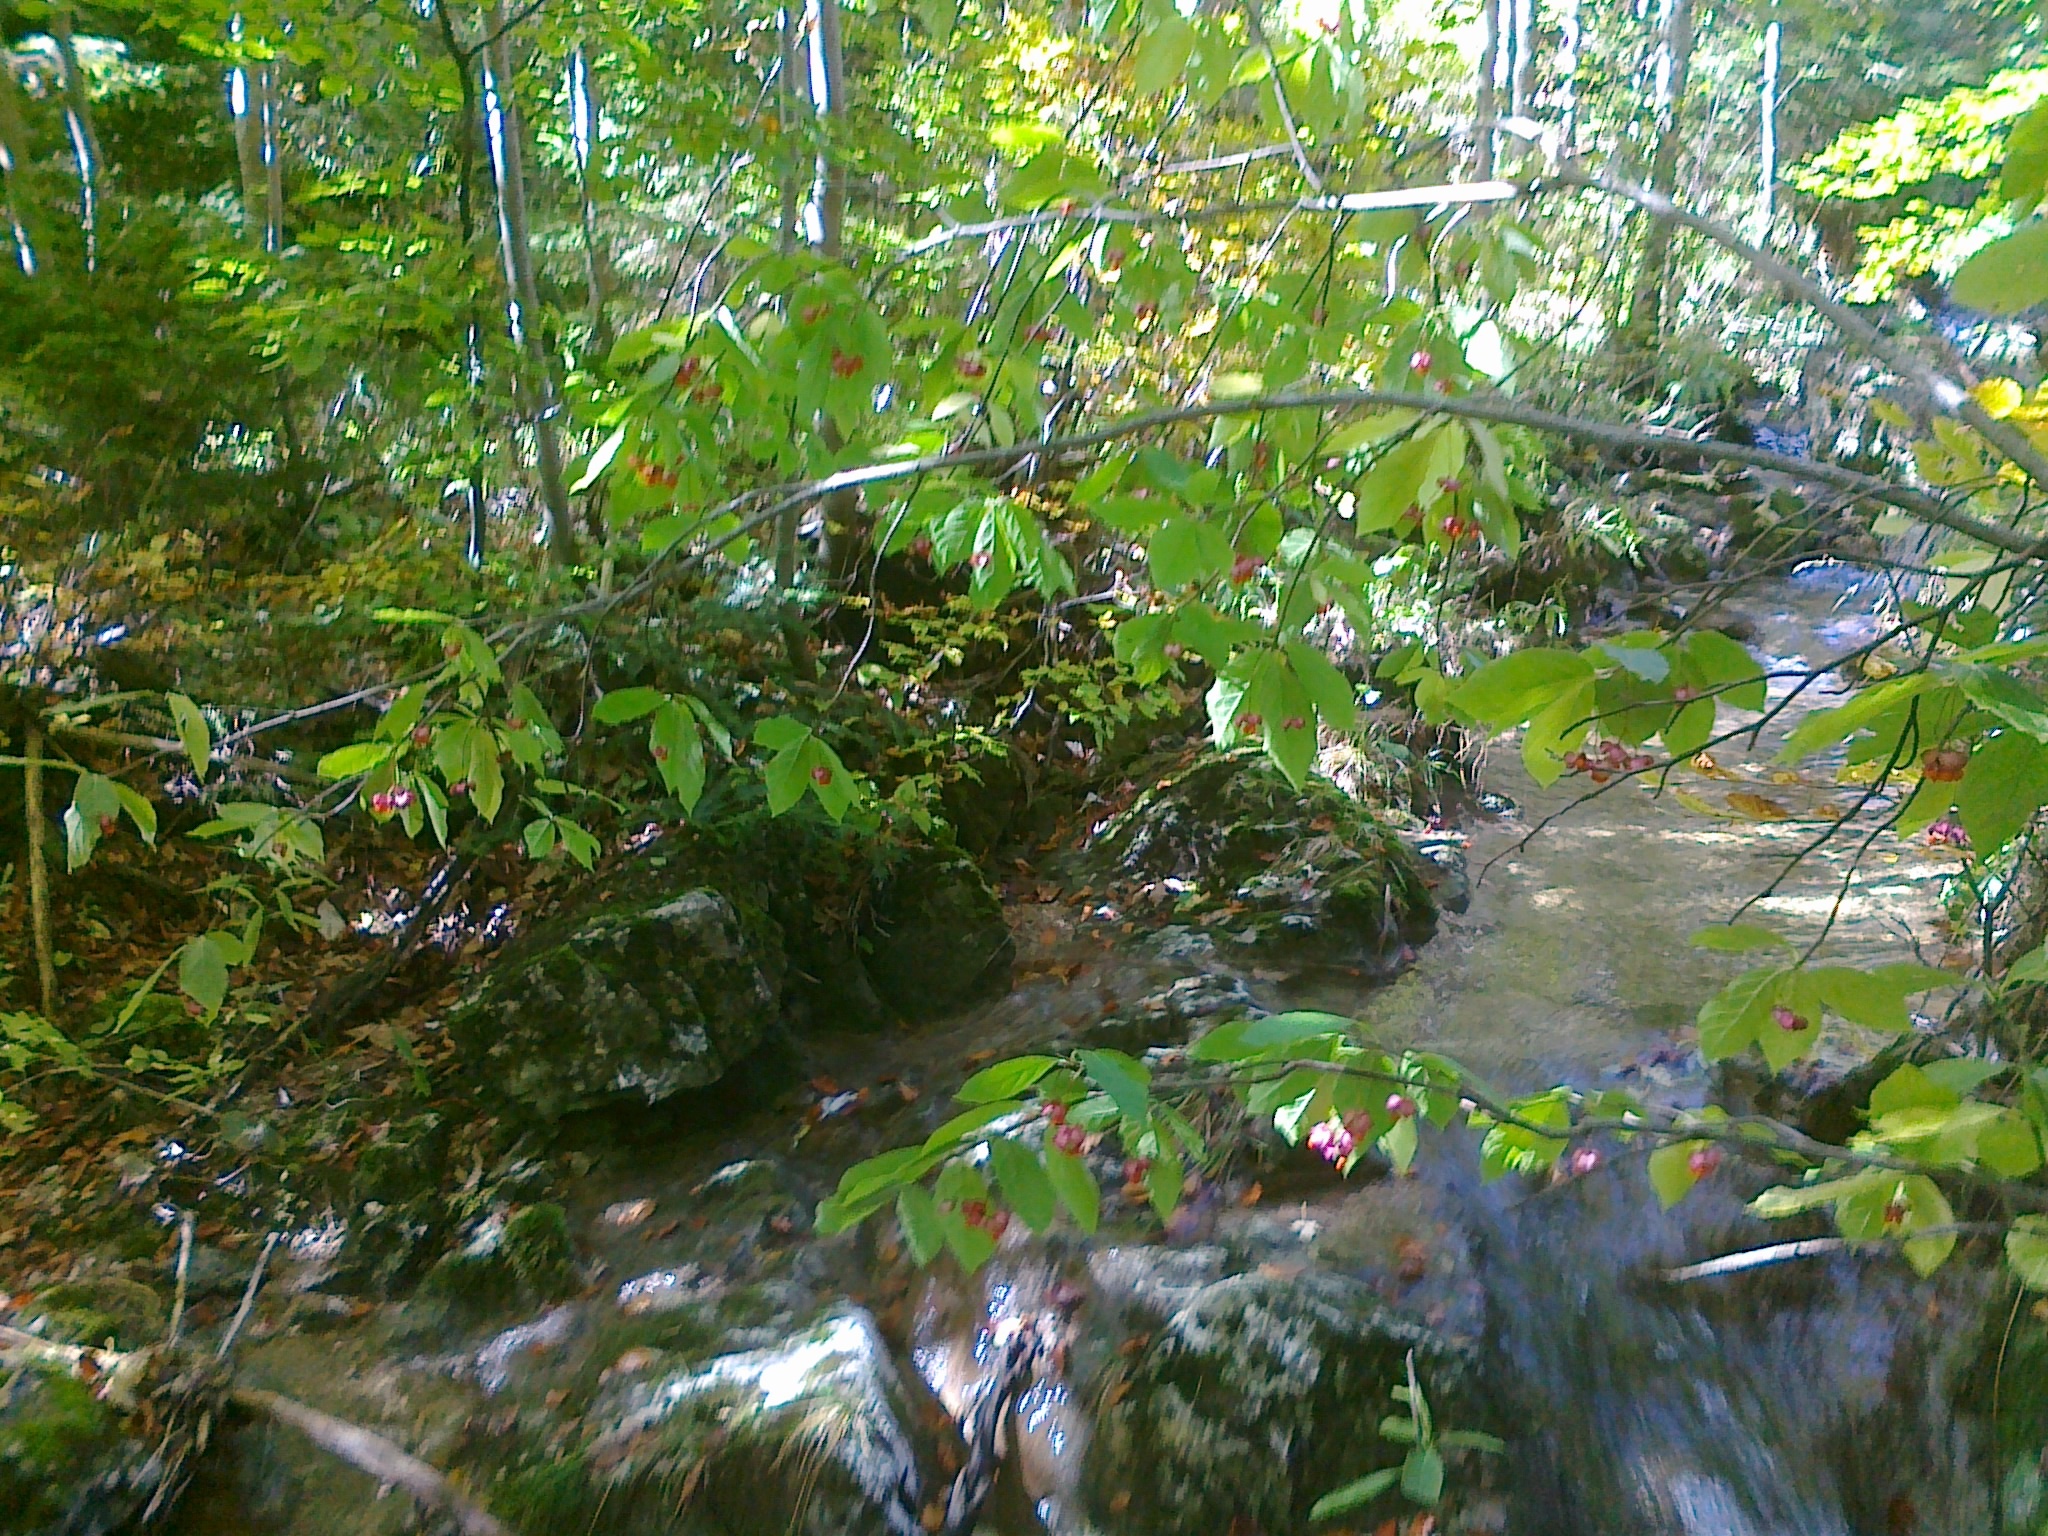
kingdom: Plantae
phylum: Tracheophyta
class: Magnoliopsida
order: Celastrales
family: Celastraceae
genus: Euonymus
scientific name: Euonymus latifolius
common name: Large-leaved spindle
